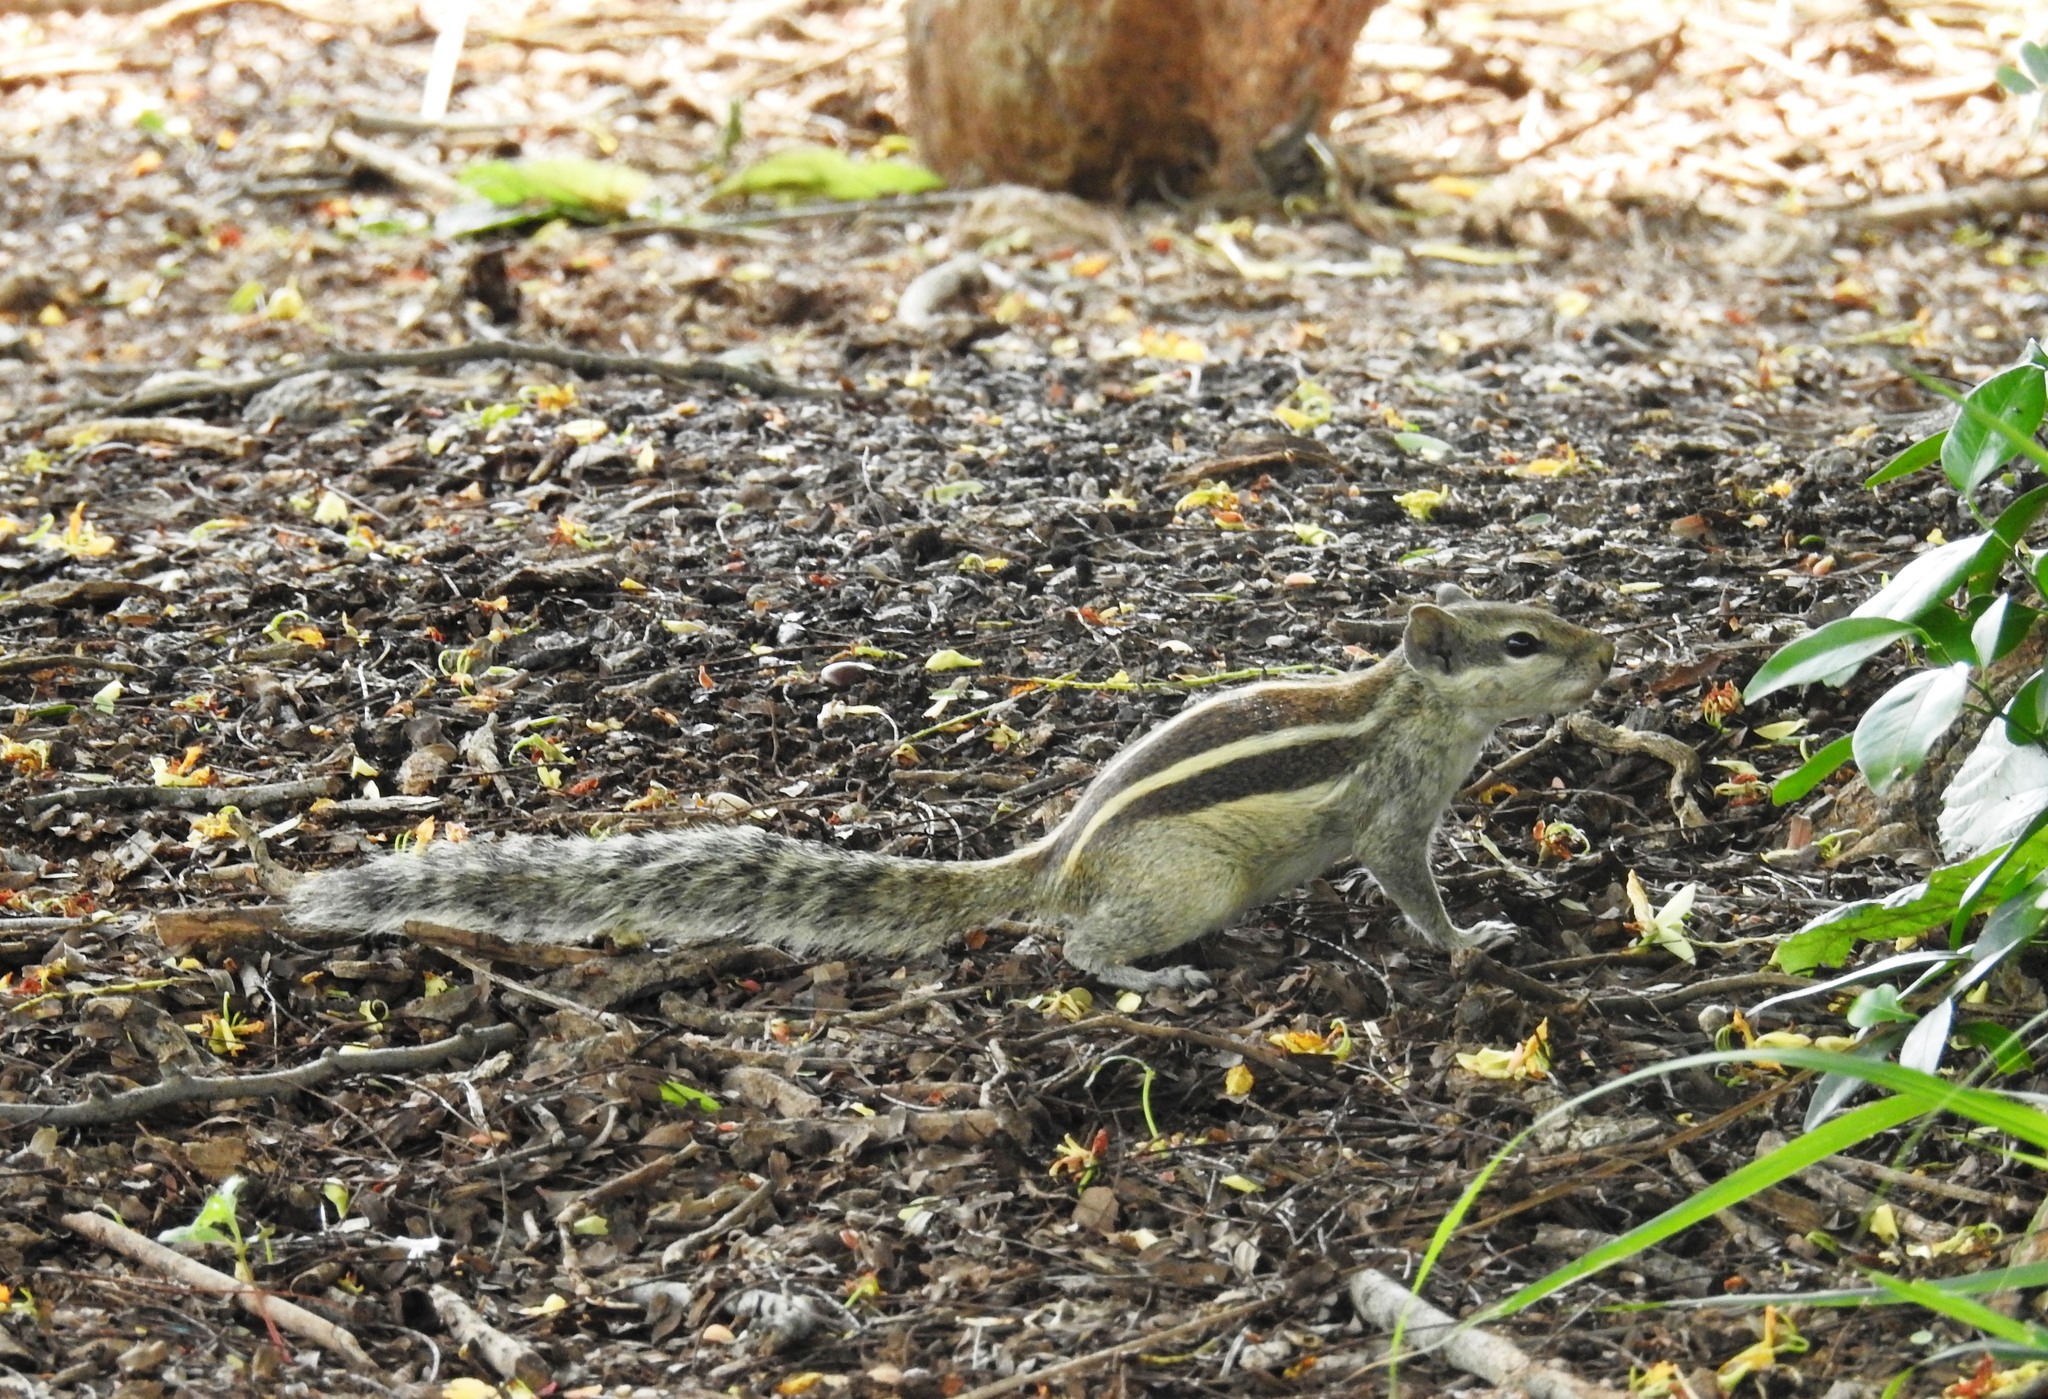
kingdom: Animalia
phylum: Chordata
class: Mammalia
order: Rodentia
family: Sciuridae
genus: Funambulus
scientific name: Funambulus pennantii
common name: Northern palm squirrel
